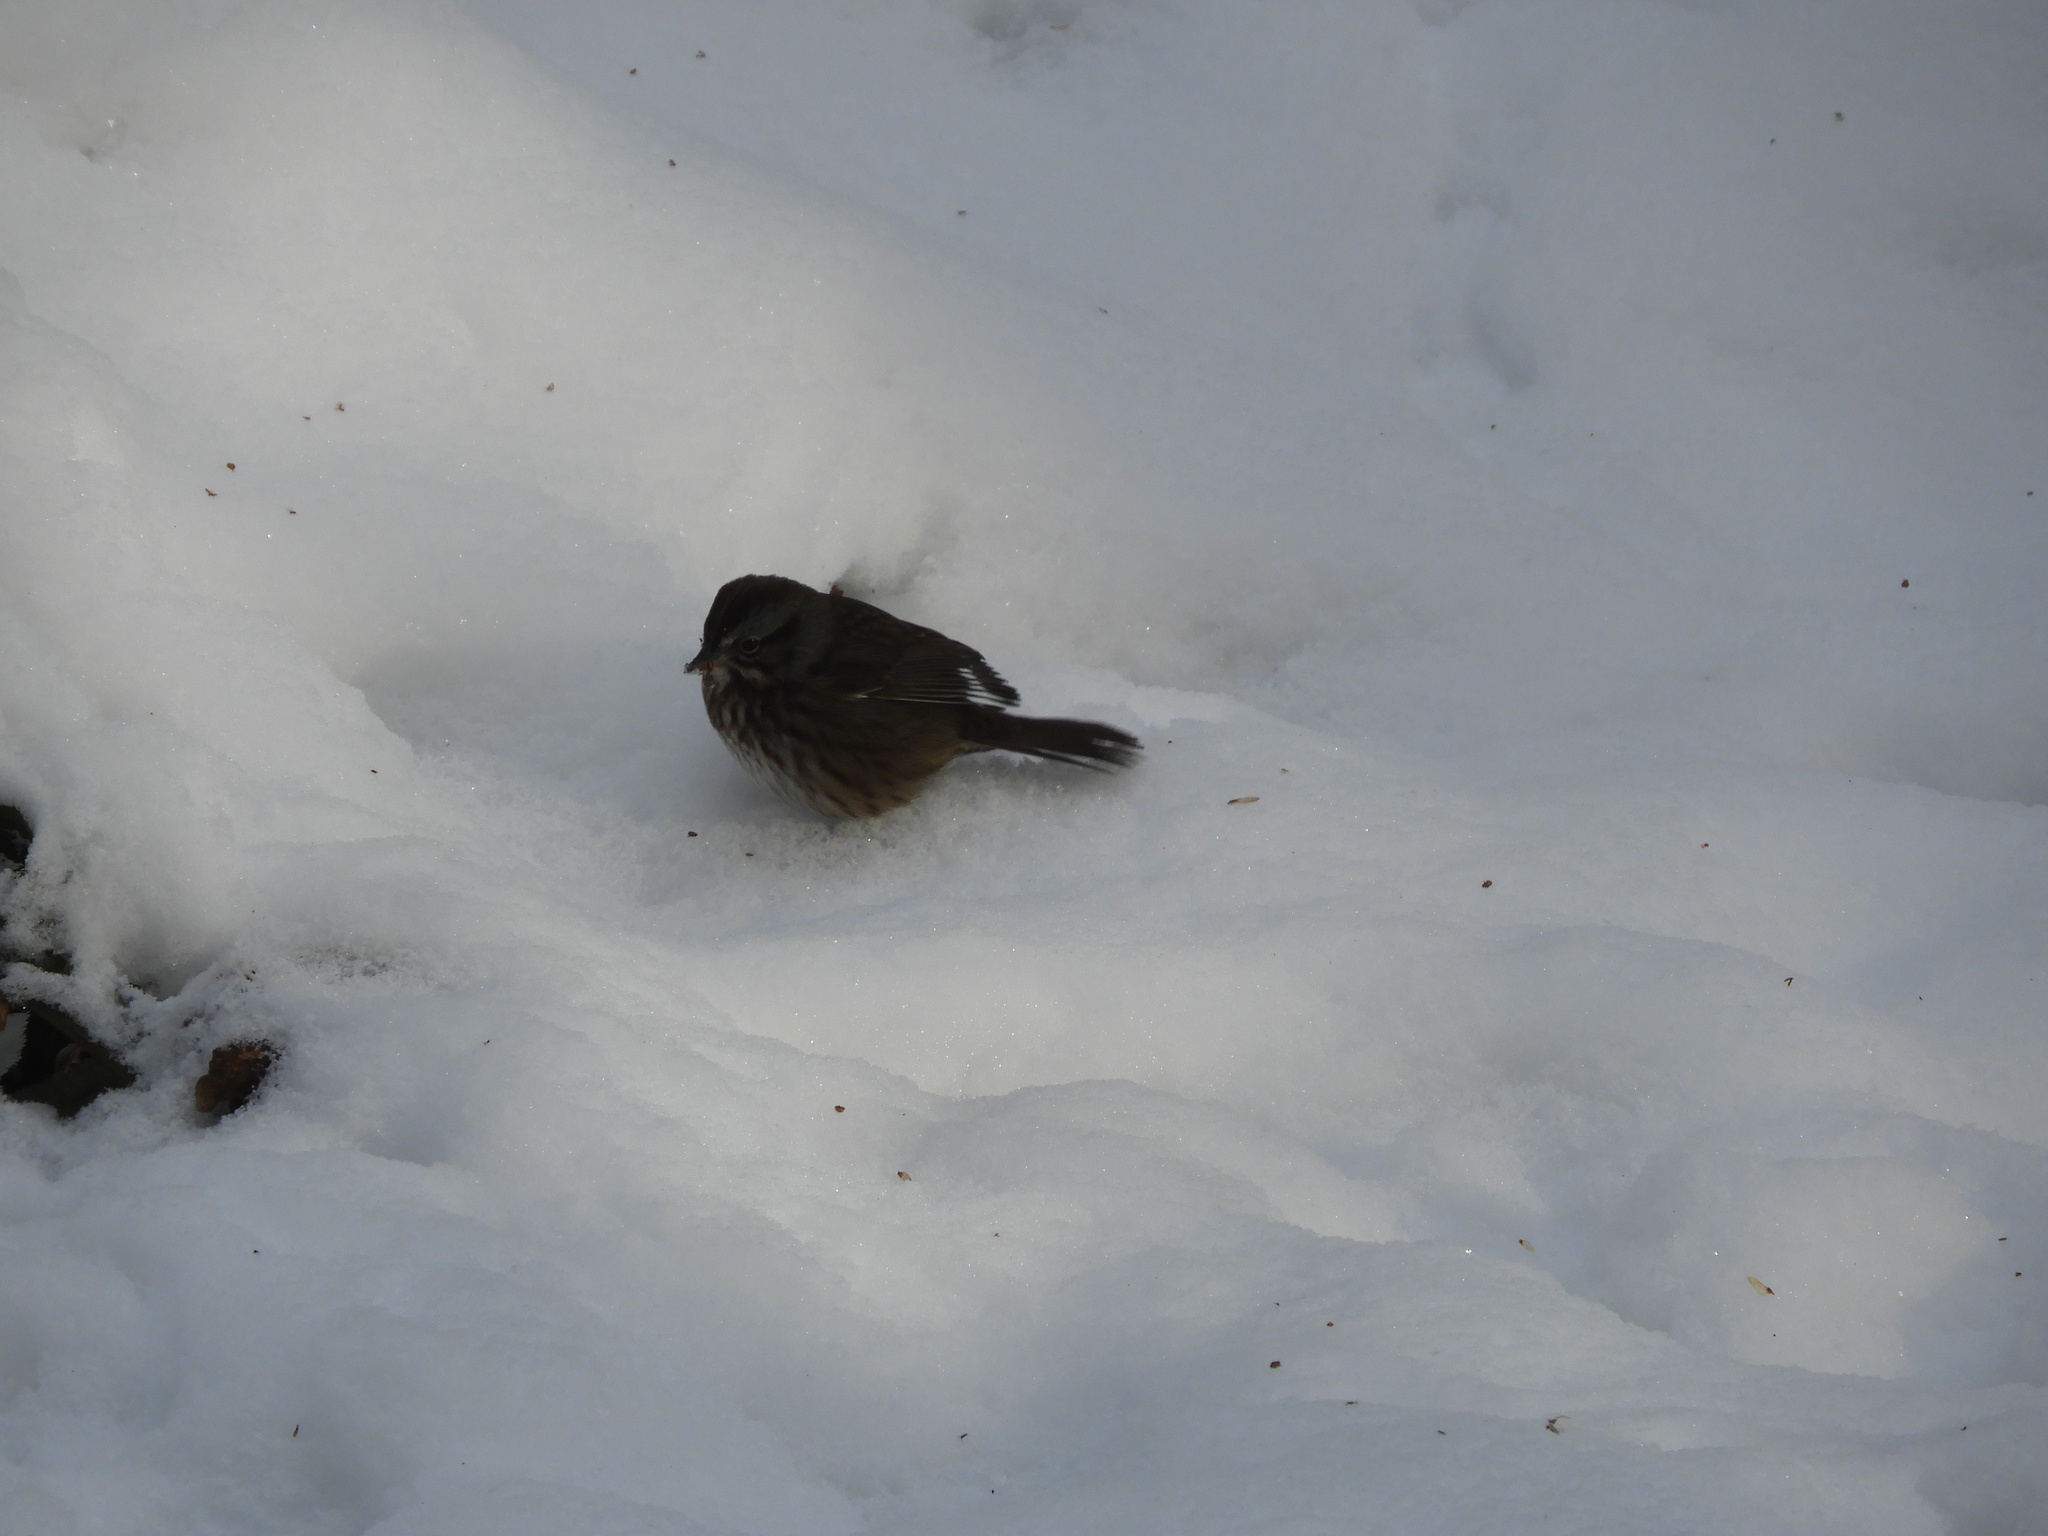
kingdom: Animalia
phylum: Chordata
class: Aves
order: Passeriformes
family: Passerellidae
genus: Melospiza
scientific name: Melospiza melodia
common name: Song sparrow
